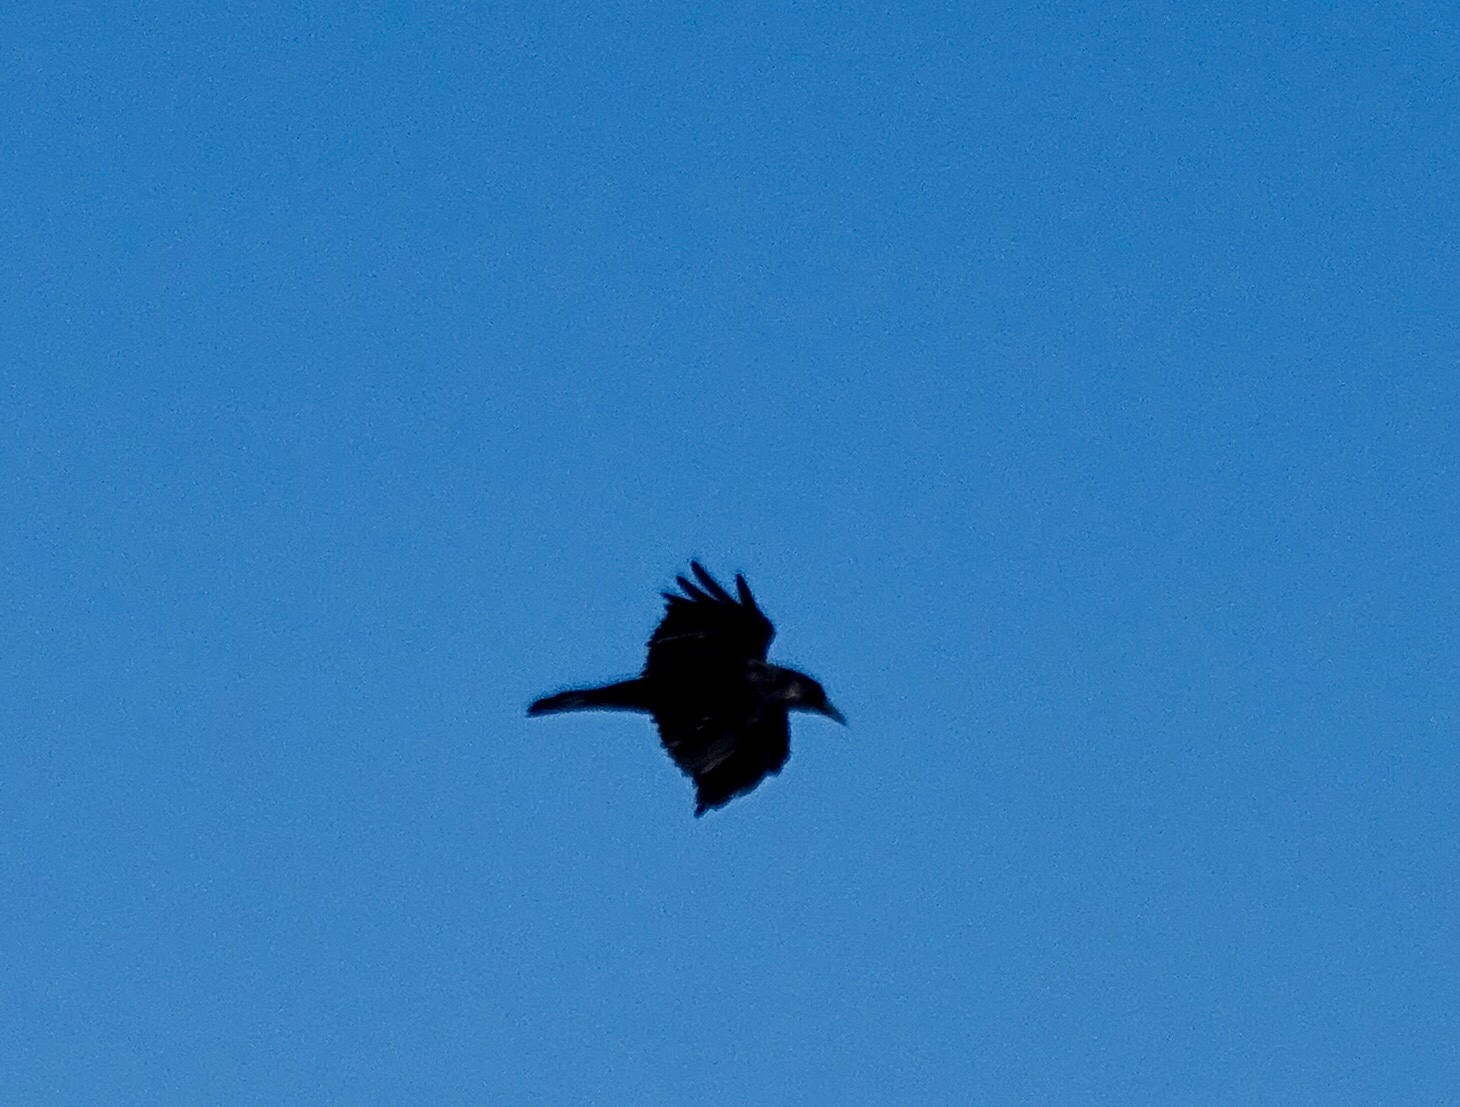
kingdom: Animalia
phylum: Chordata
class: Aves
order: Passeriformes
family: Corvidae
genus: Corvus
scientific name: Corvus corax
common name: Common raven
